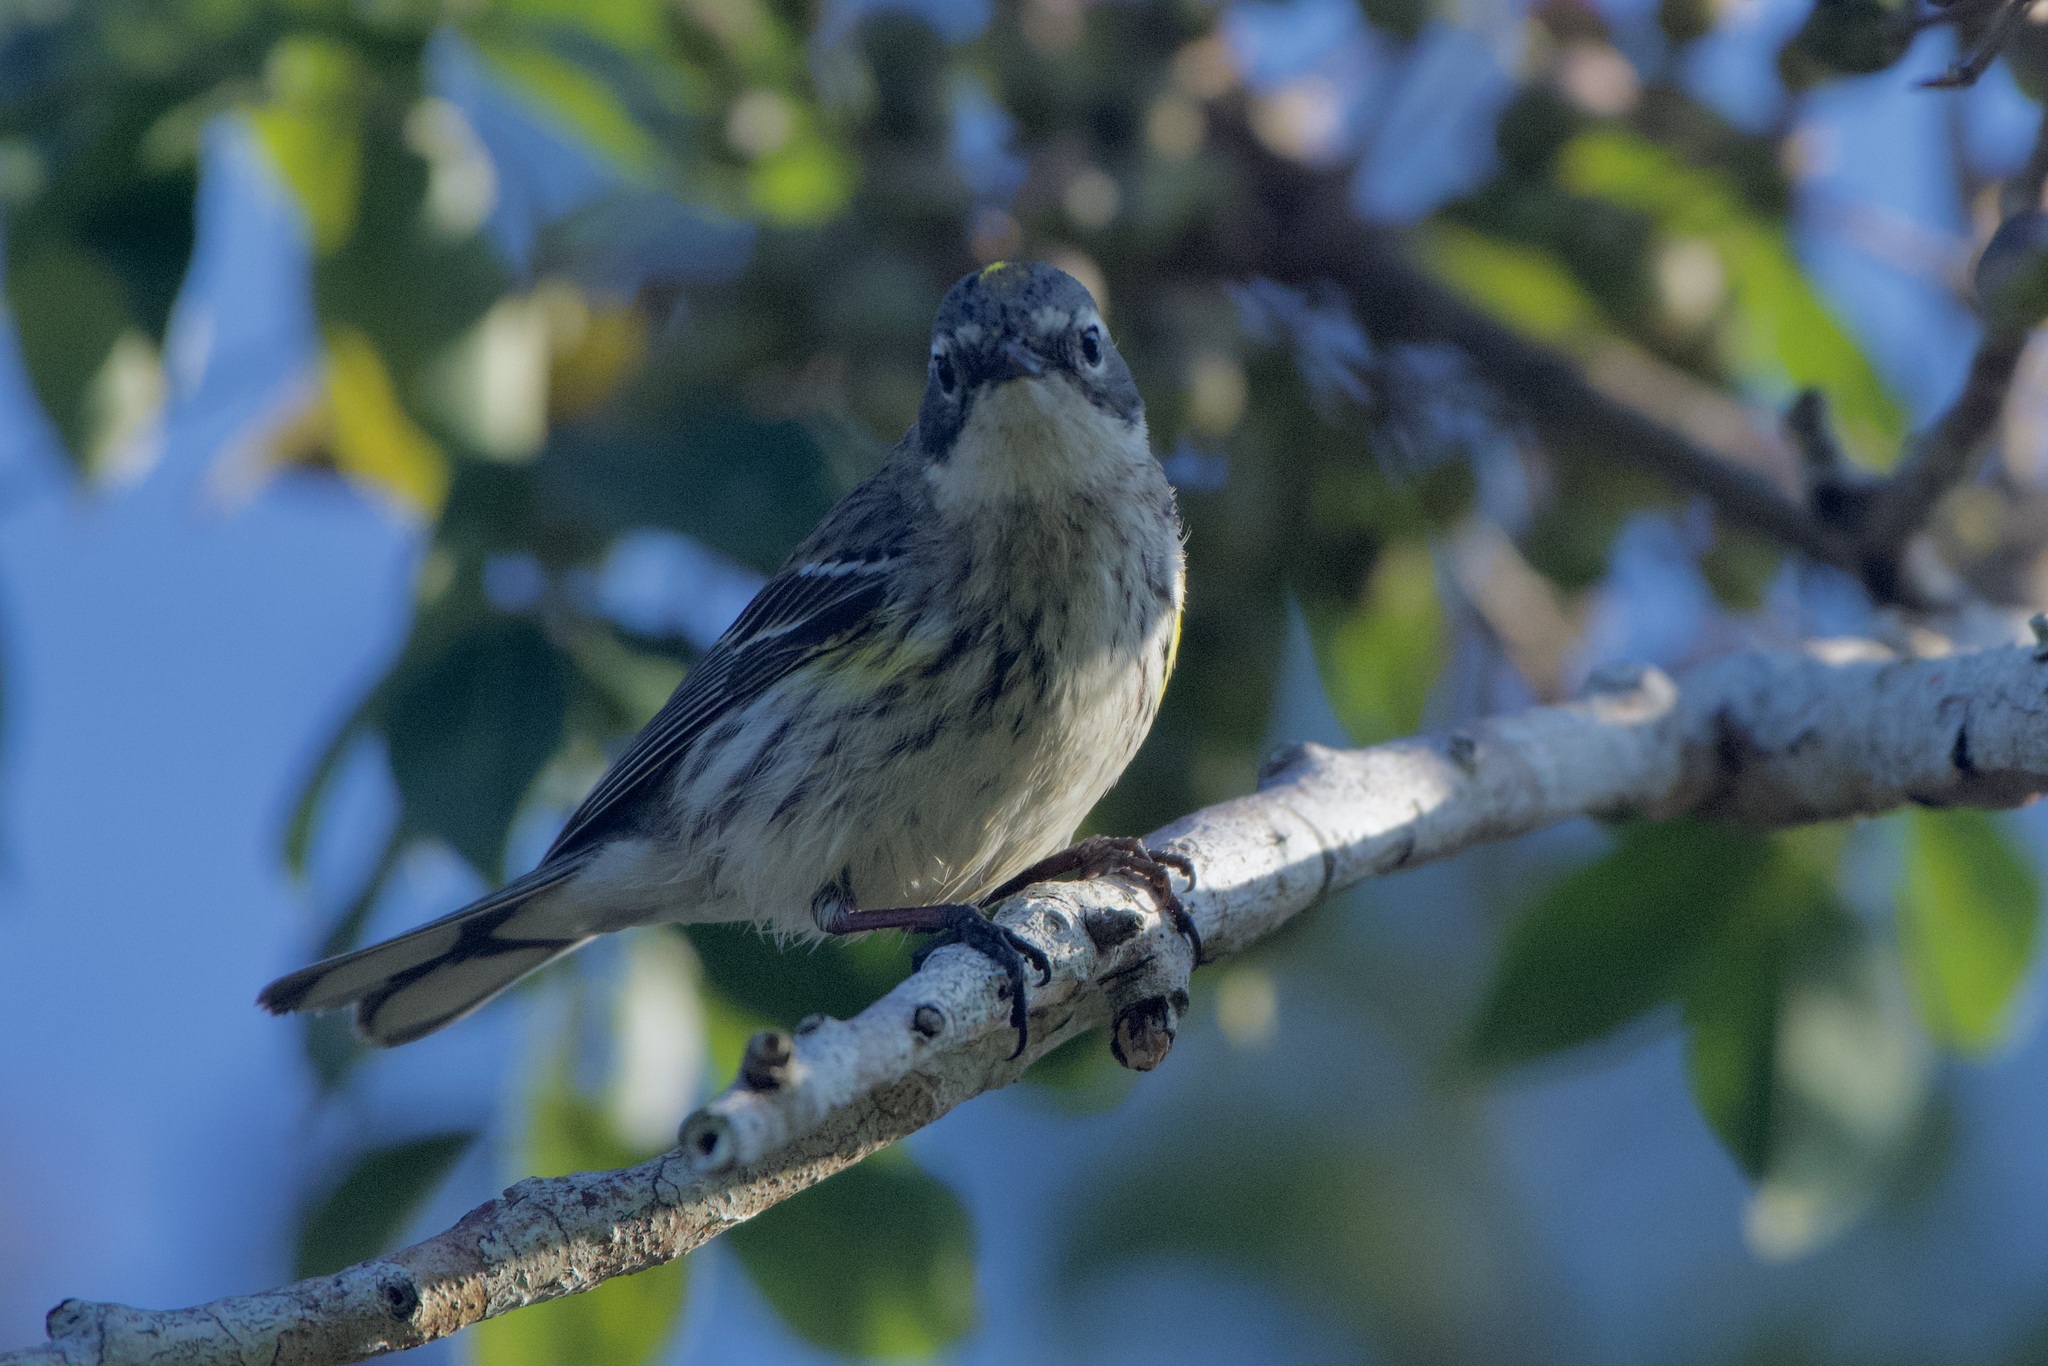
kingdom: Animalia
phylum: Chordata
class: Aves
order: Passeriformes
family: Parulidae
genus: Setophaga
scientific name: Setophaga coronata
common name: Myrtle warbler
